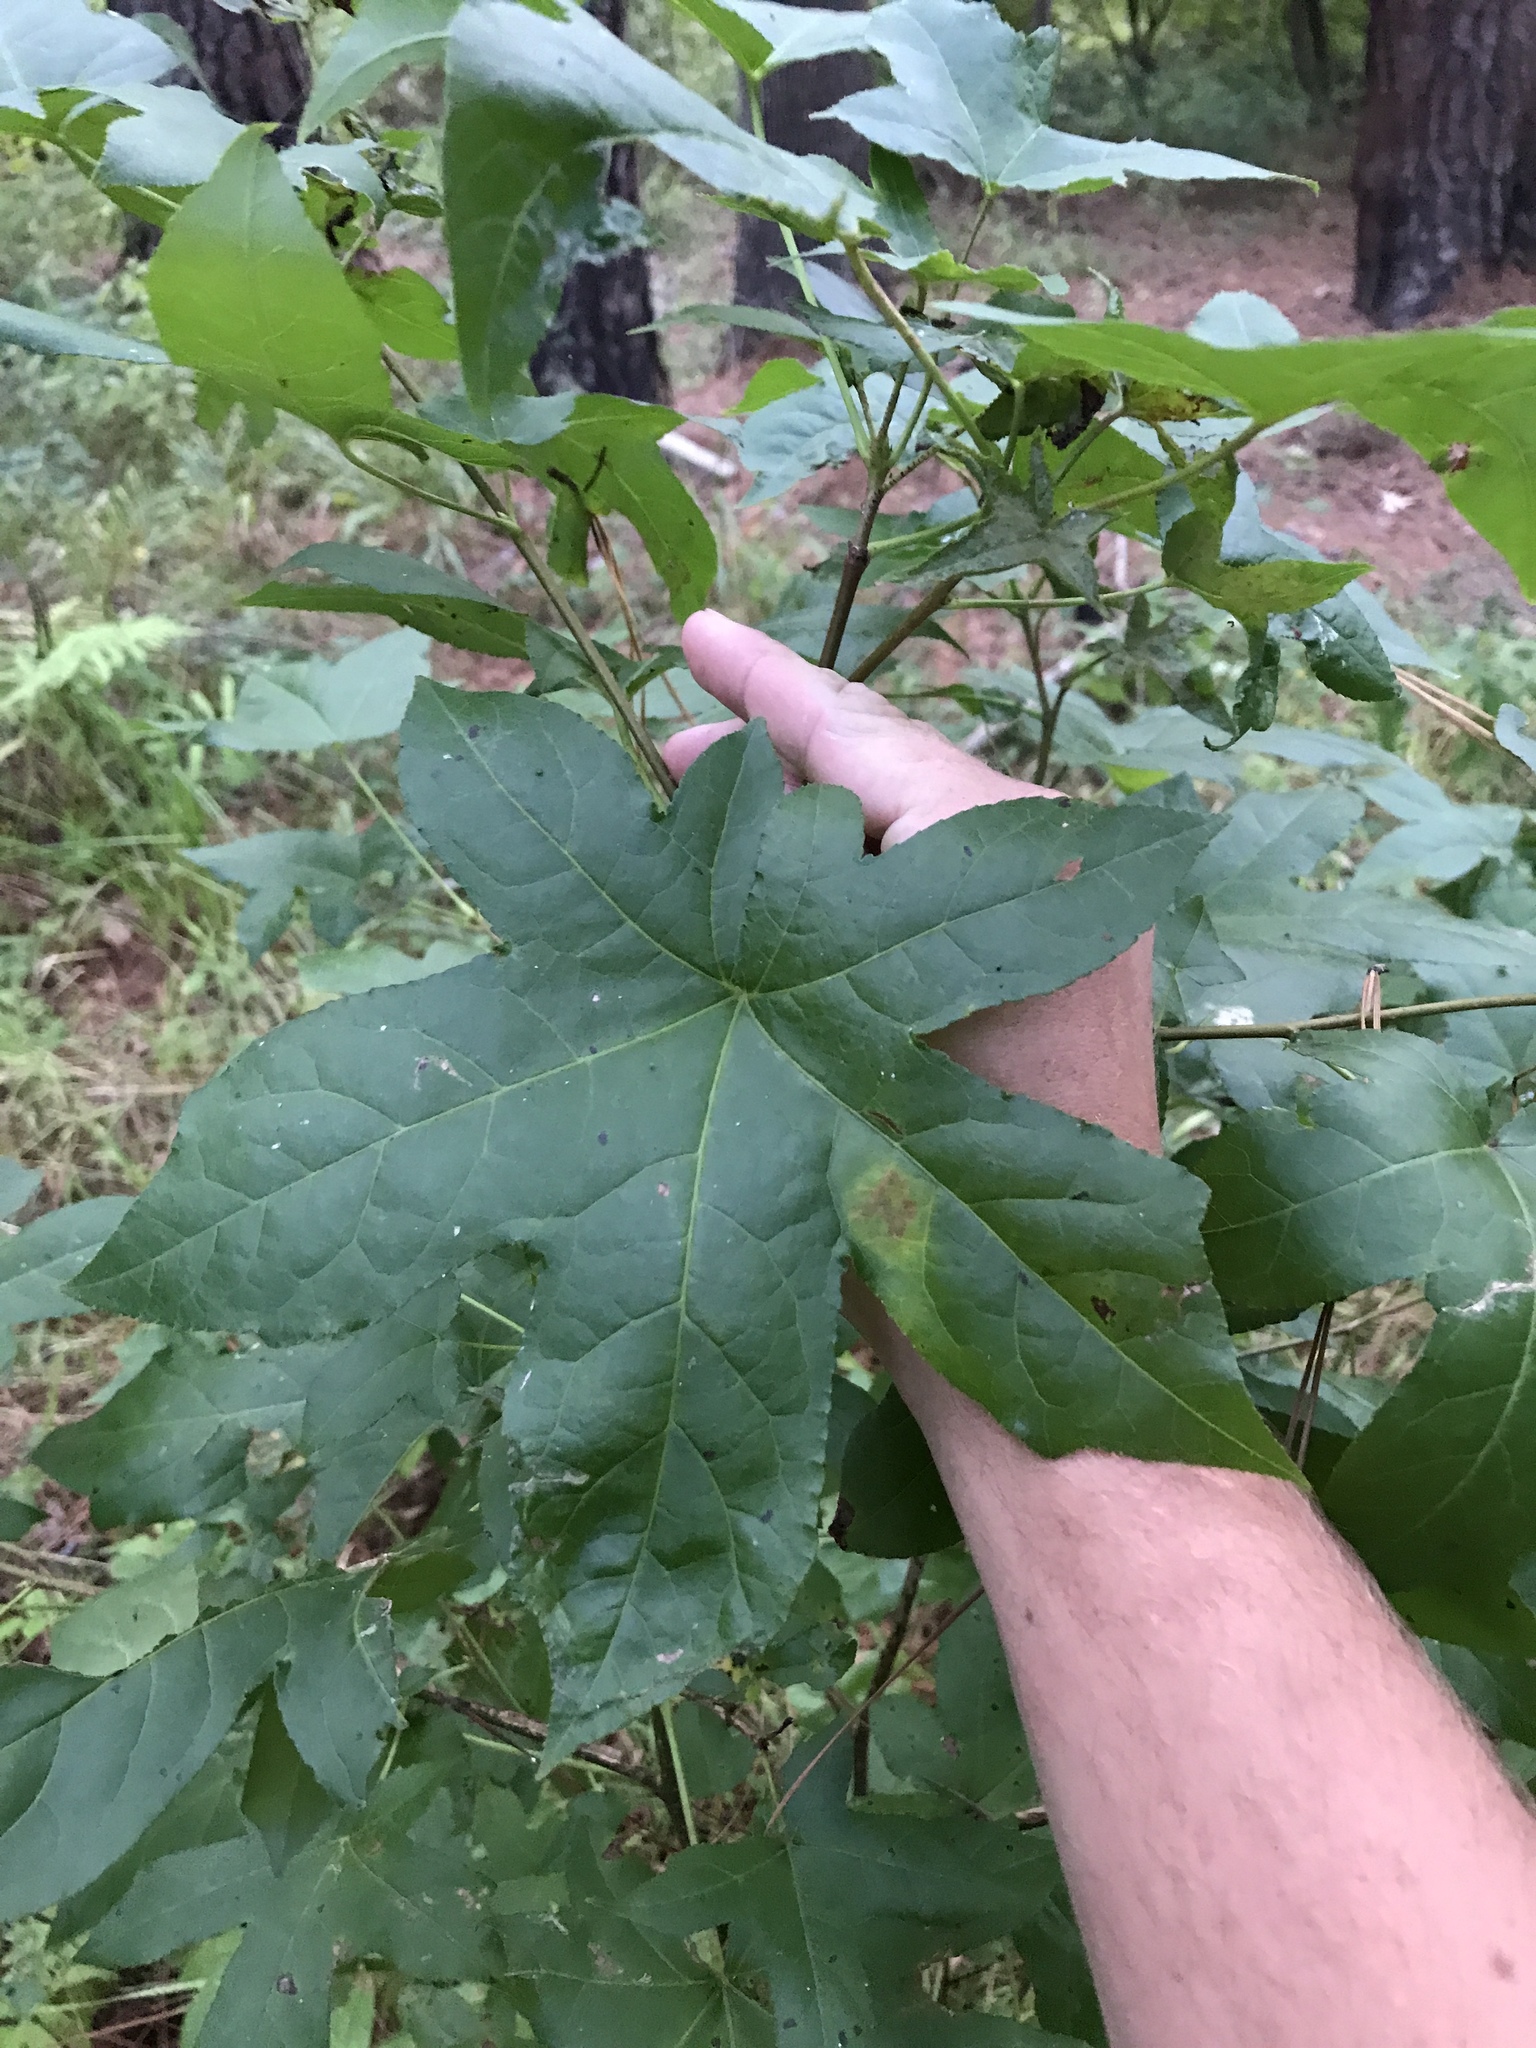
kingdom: Plantae
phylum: Tracheophyta
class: Magnoliopsida
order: Saxifragales
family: Altingiaceae
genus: Liquidambar
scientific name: Liquidambar styraciflua
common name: Sweet gum
